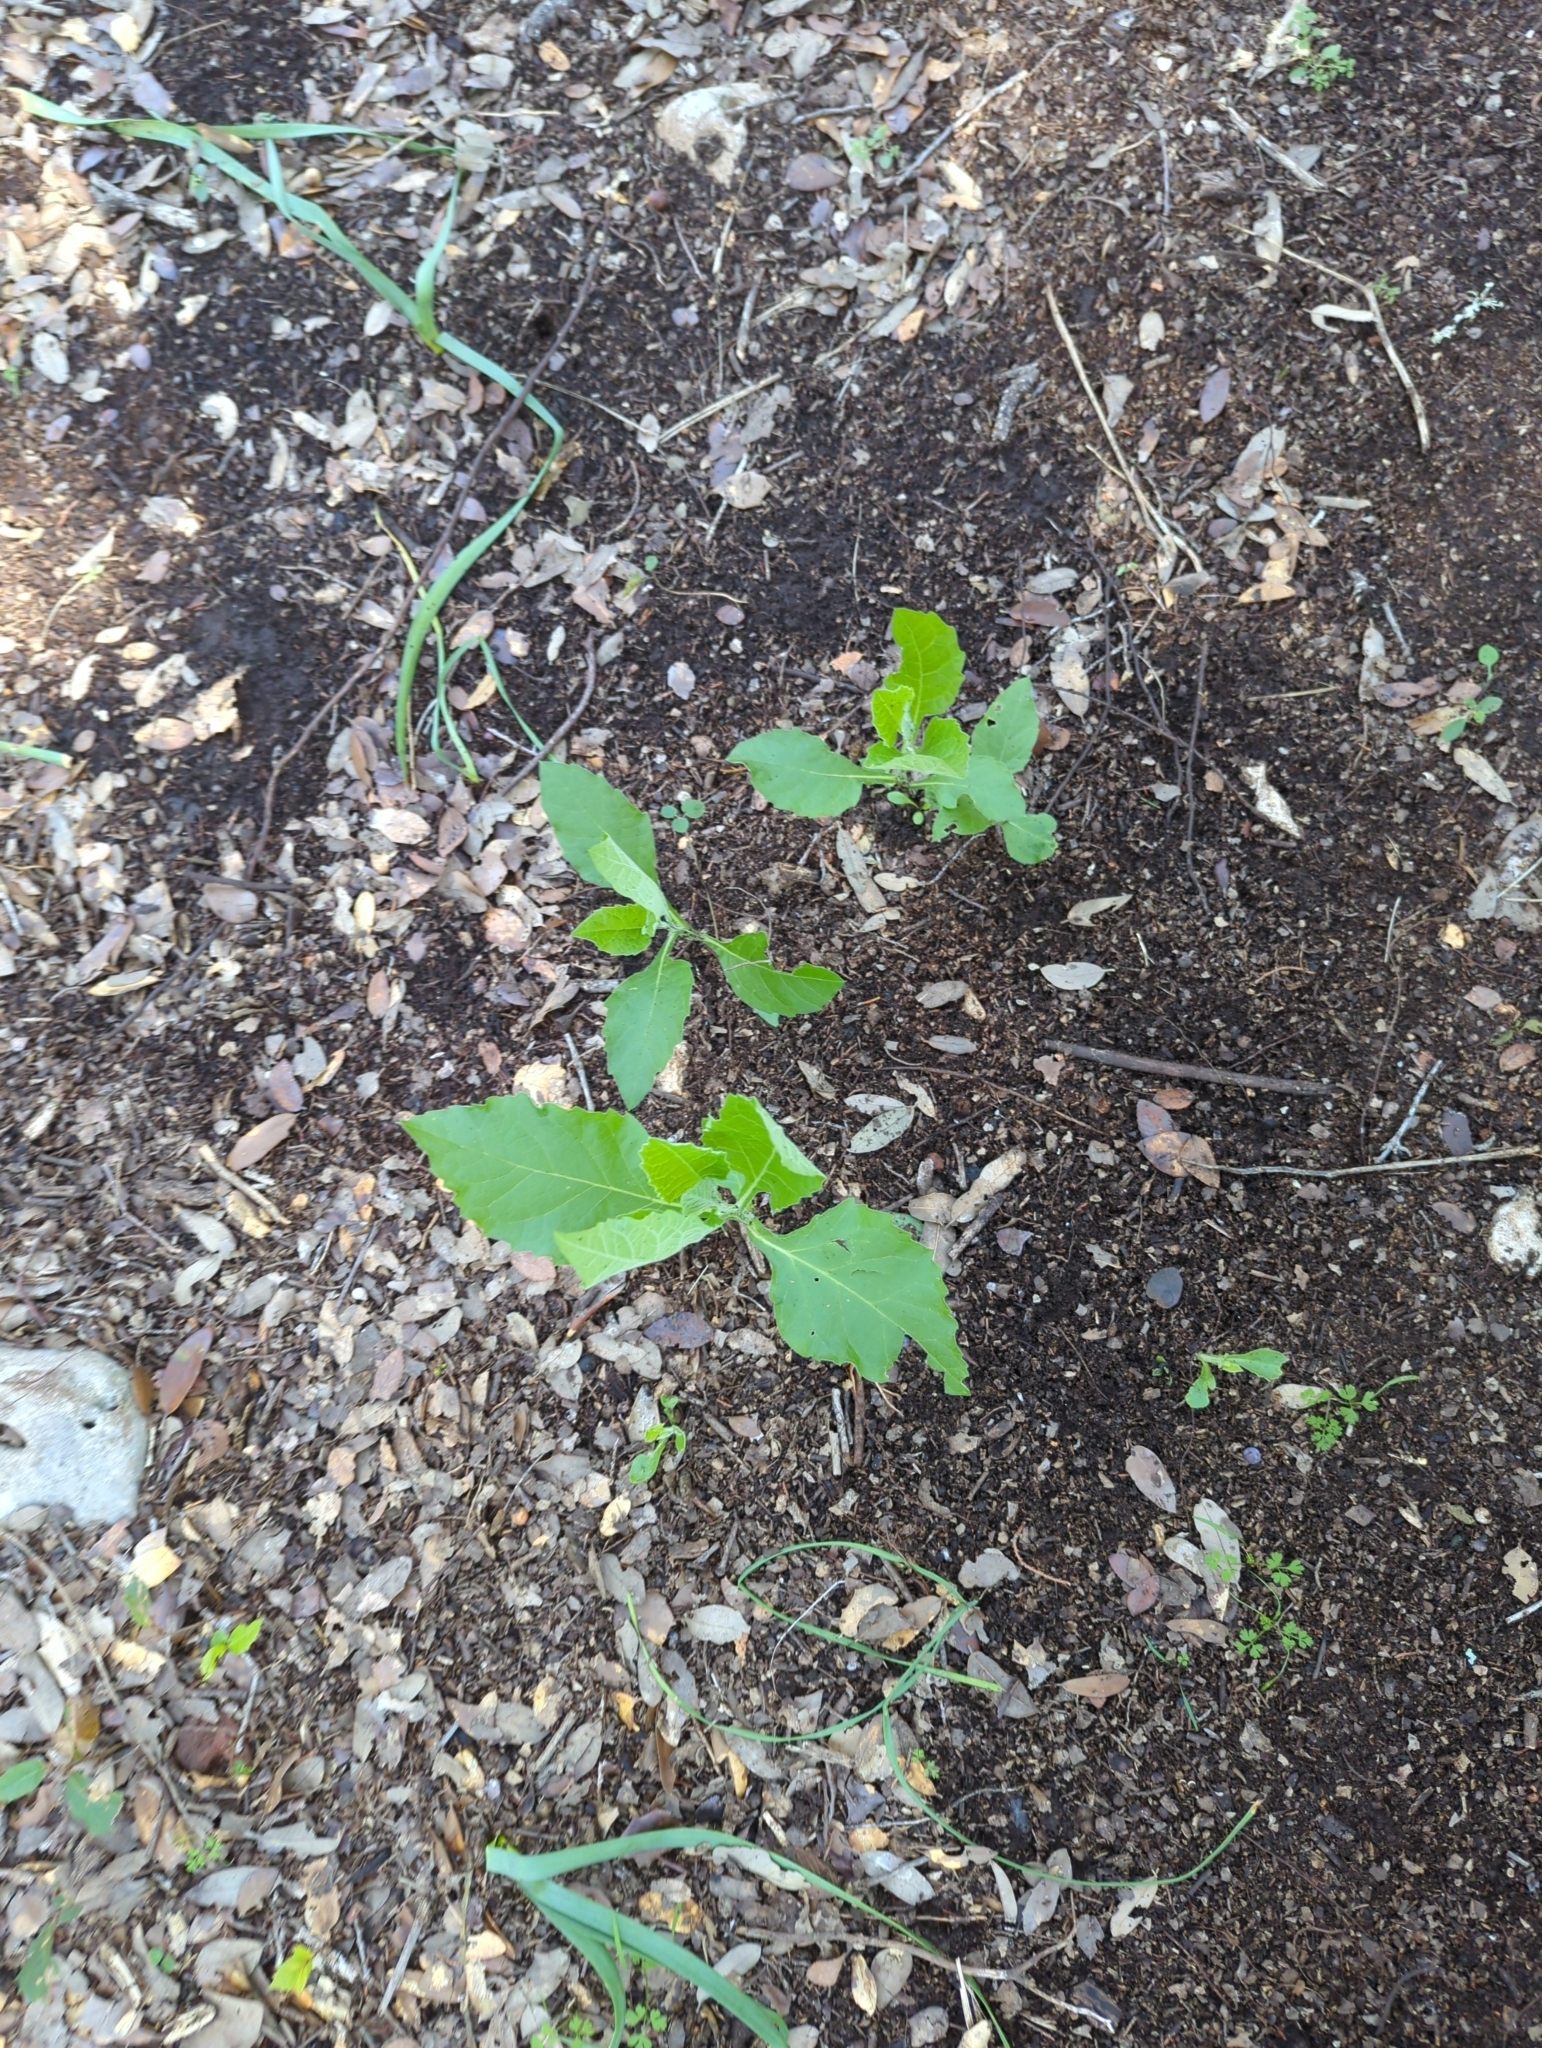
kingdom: Plantae
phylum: Tracheophyta
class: Magnoliopsida
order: Asterales
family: Asteraceae
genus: Verbesina
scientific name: Verbesina virginica
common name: Frostweed
